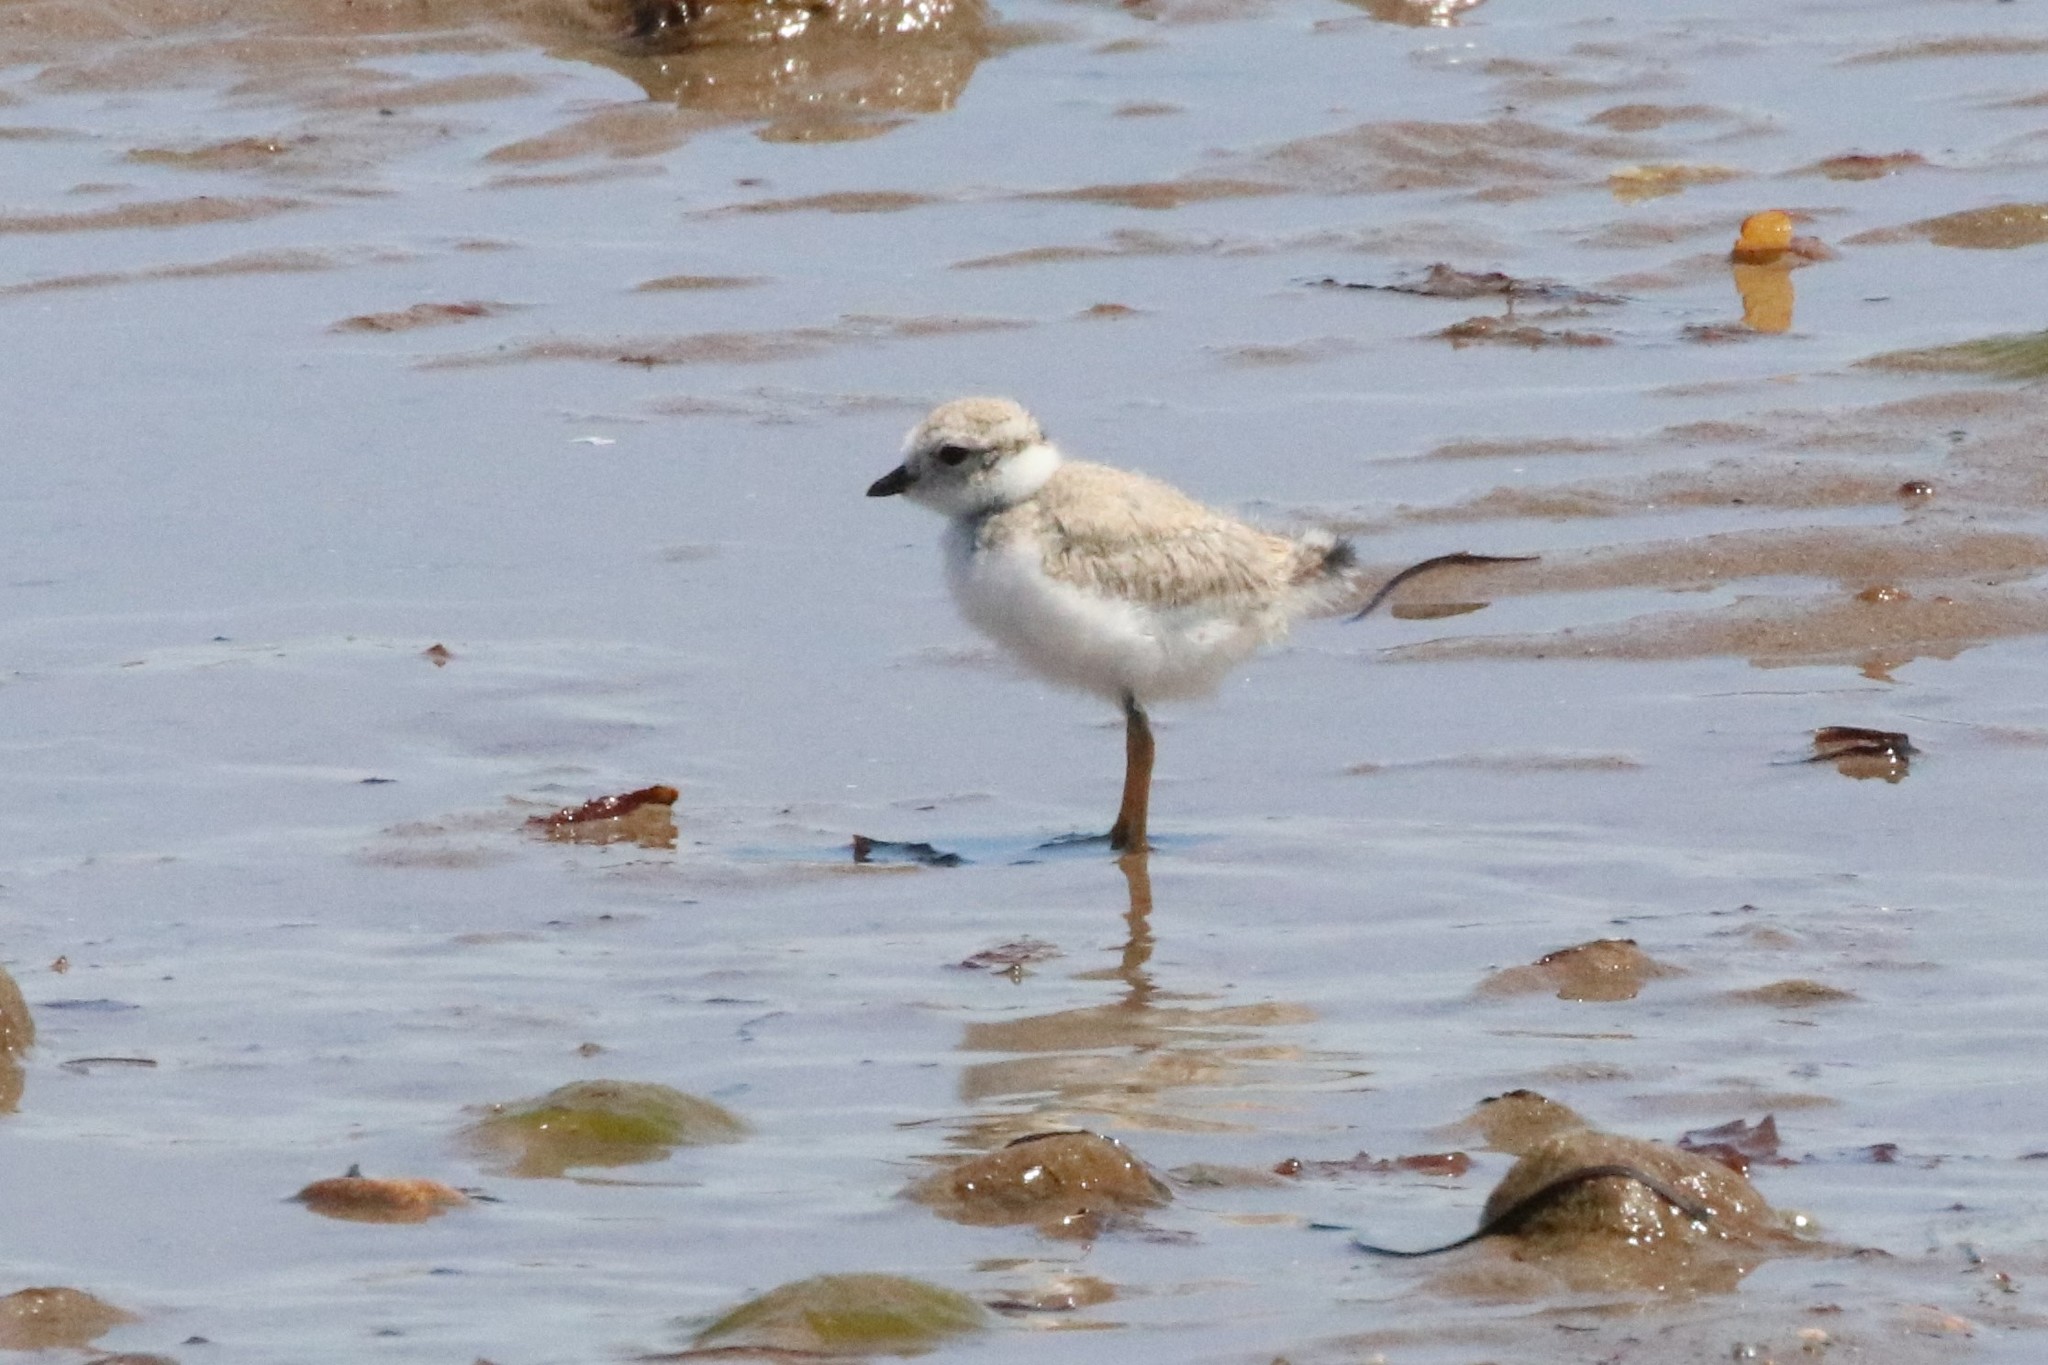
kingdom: Animalia
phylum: Chordata
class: Aves
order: Charadriiformes
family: Charadriidae
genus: Charadrius
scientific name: Charadrius melodus
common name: Piping plover
